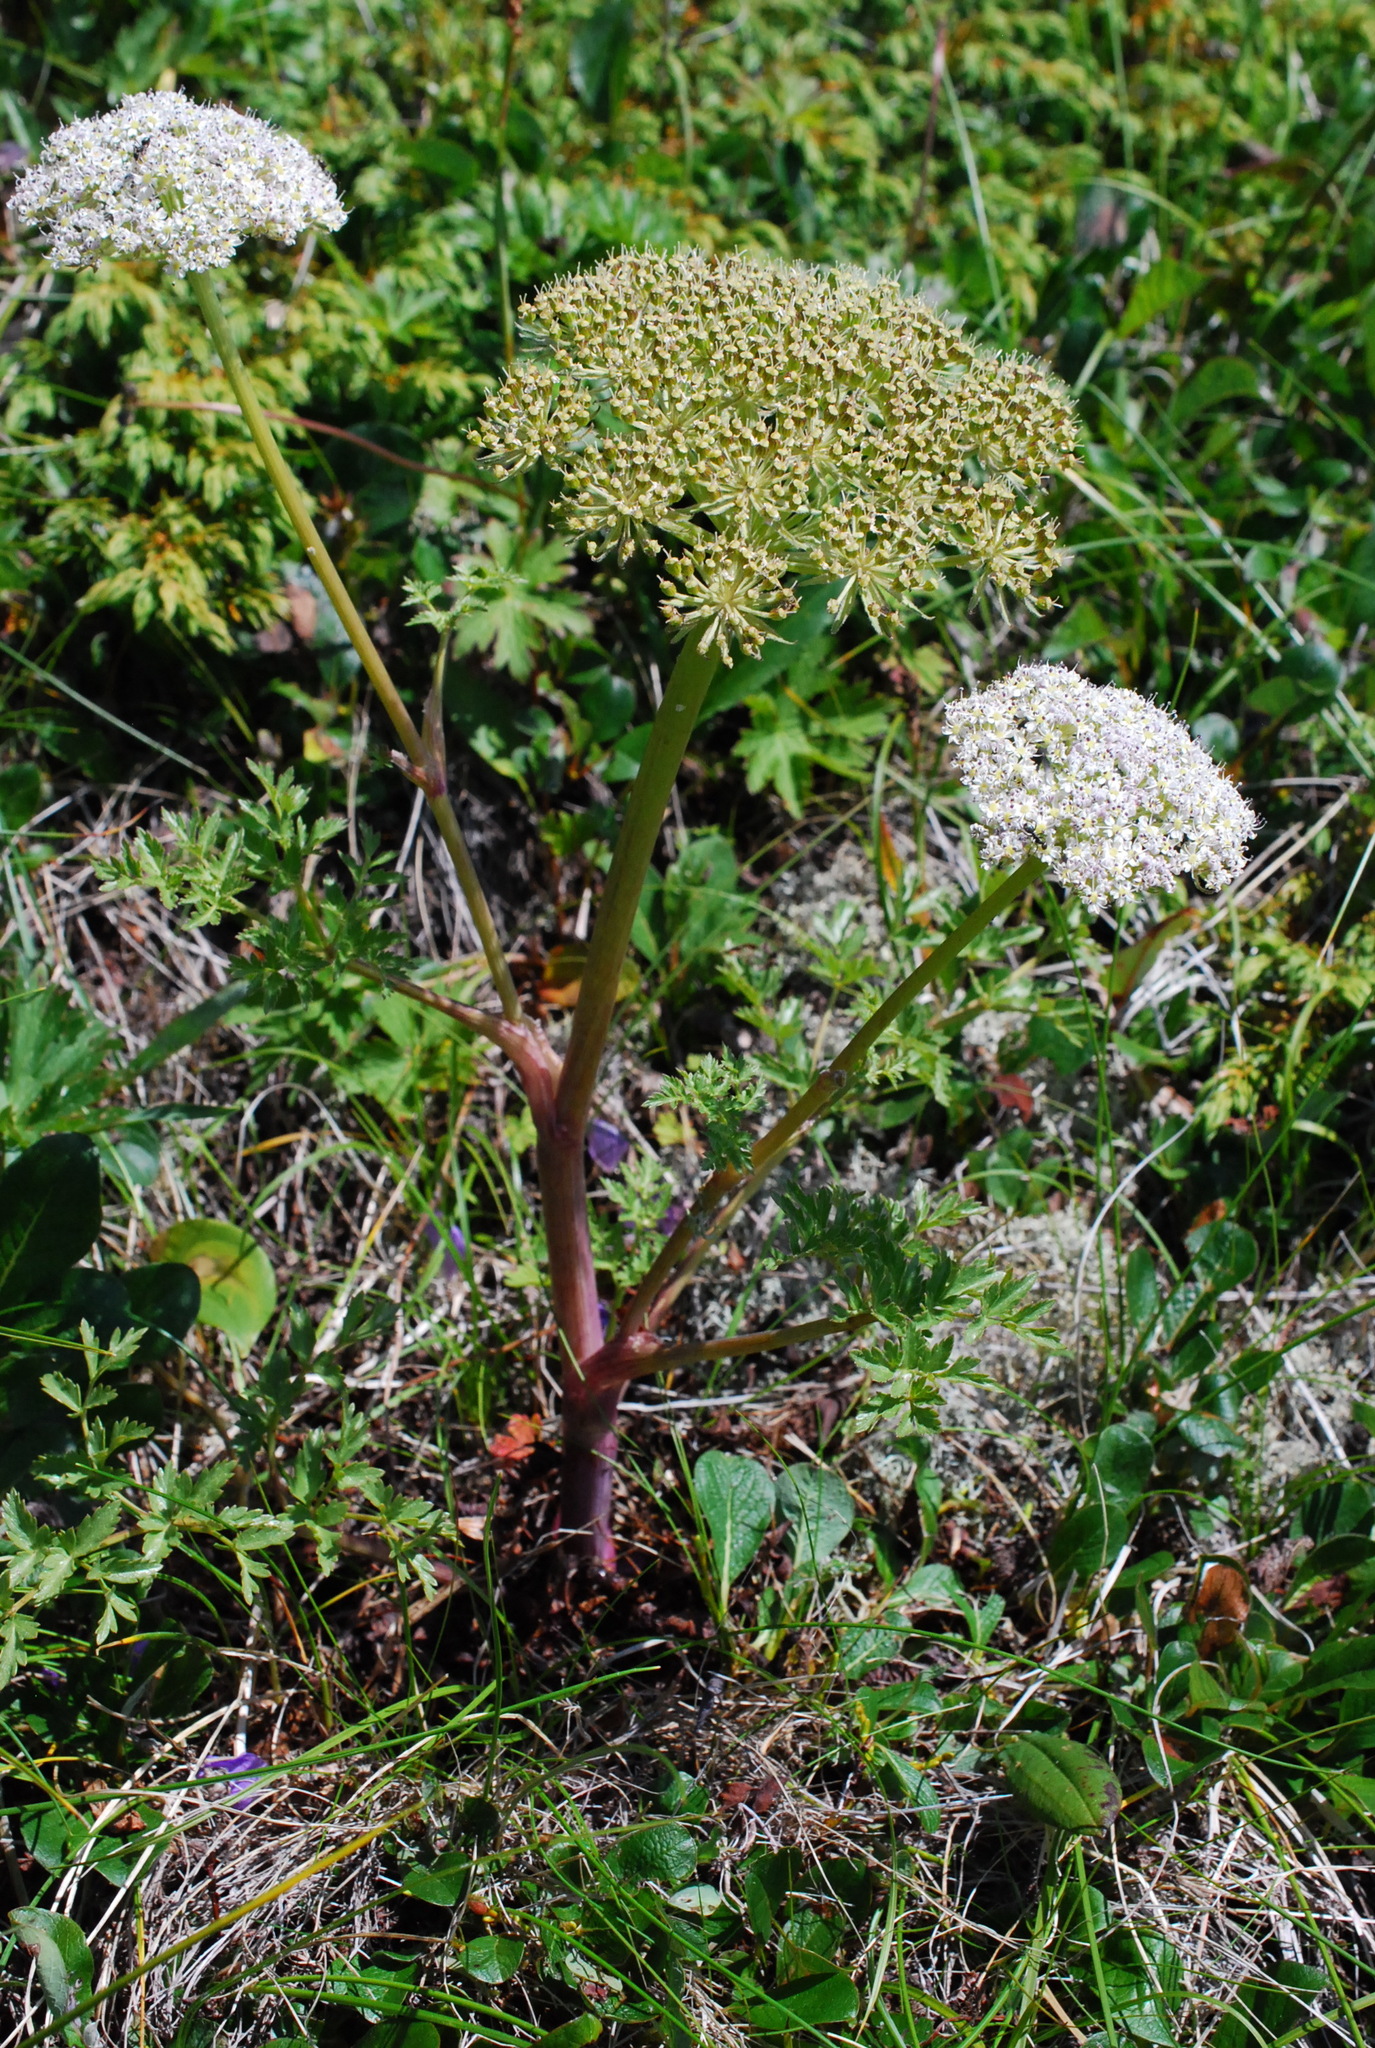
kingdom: Plantae
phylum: Tracheophyta
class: Magnoliopsida
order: Apiales
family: Apiaceae
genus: Magadania
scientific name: Magadania olaensis
